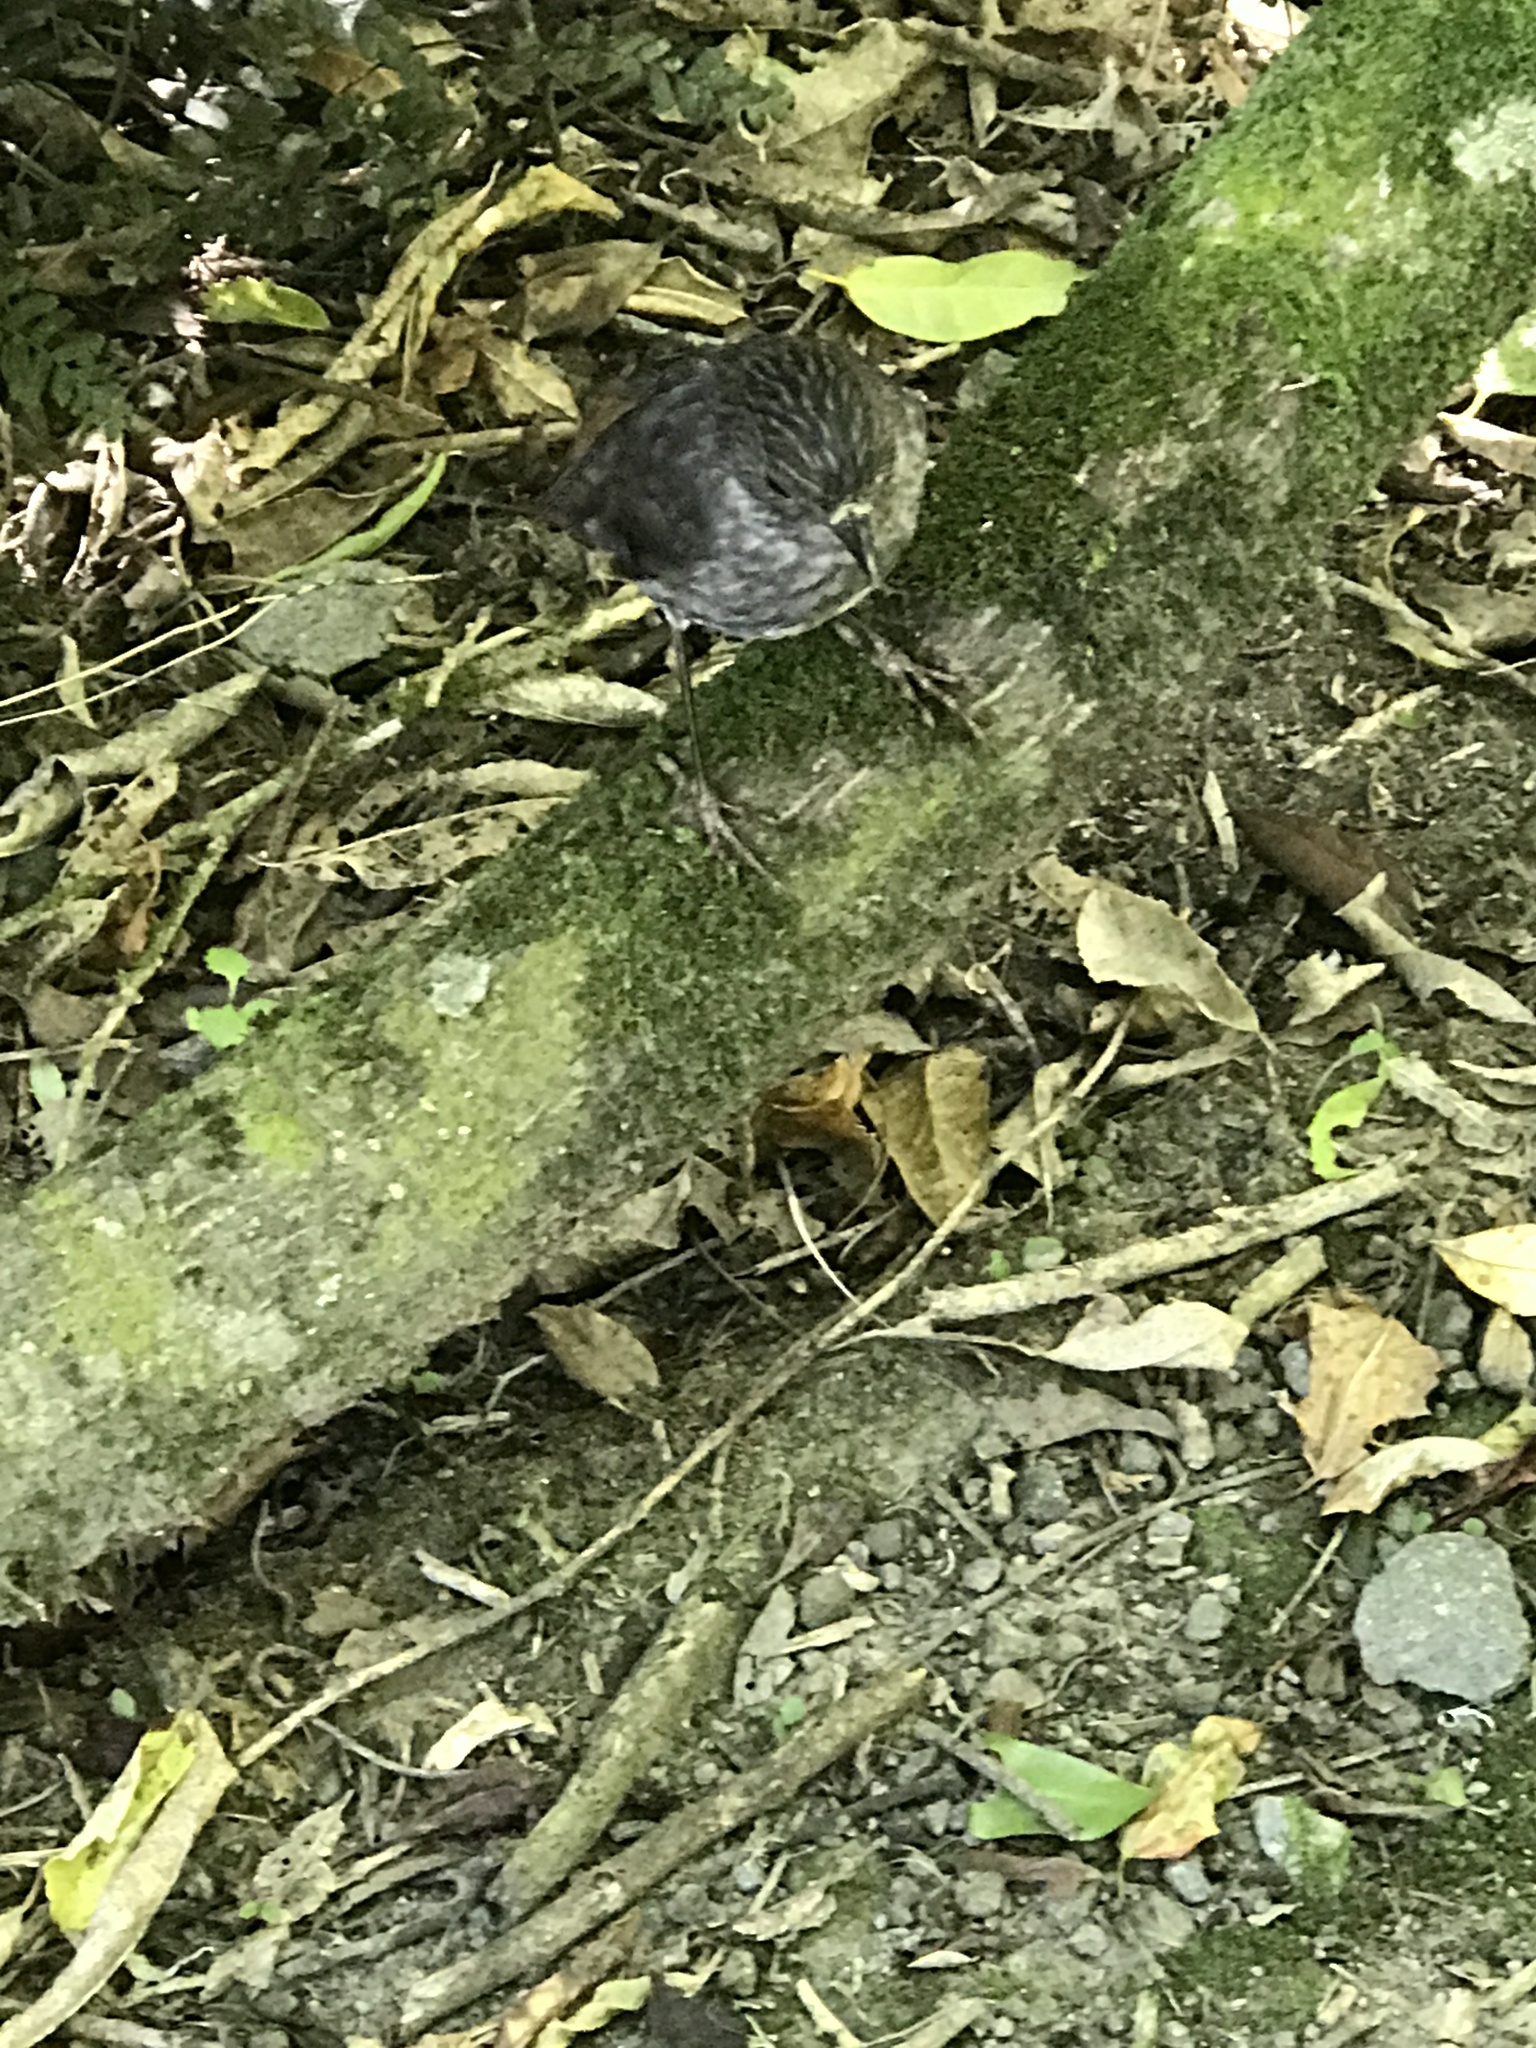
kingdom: Animalia
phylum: Chordata
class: Aves
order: Passeriformes
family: Petroicidae
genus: Petroica
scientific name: Petroica australis
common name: New zealand robin
